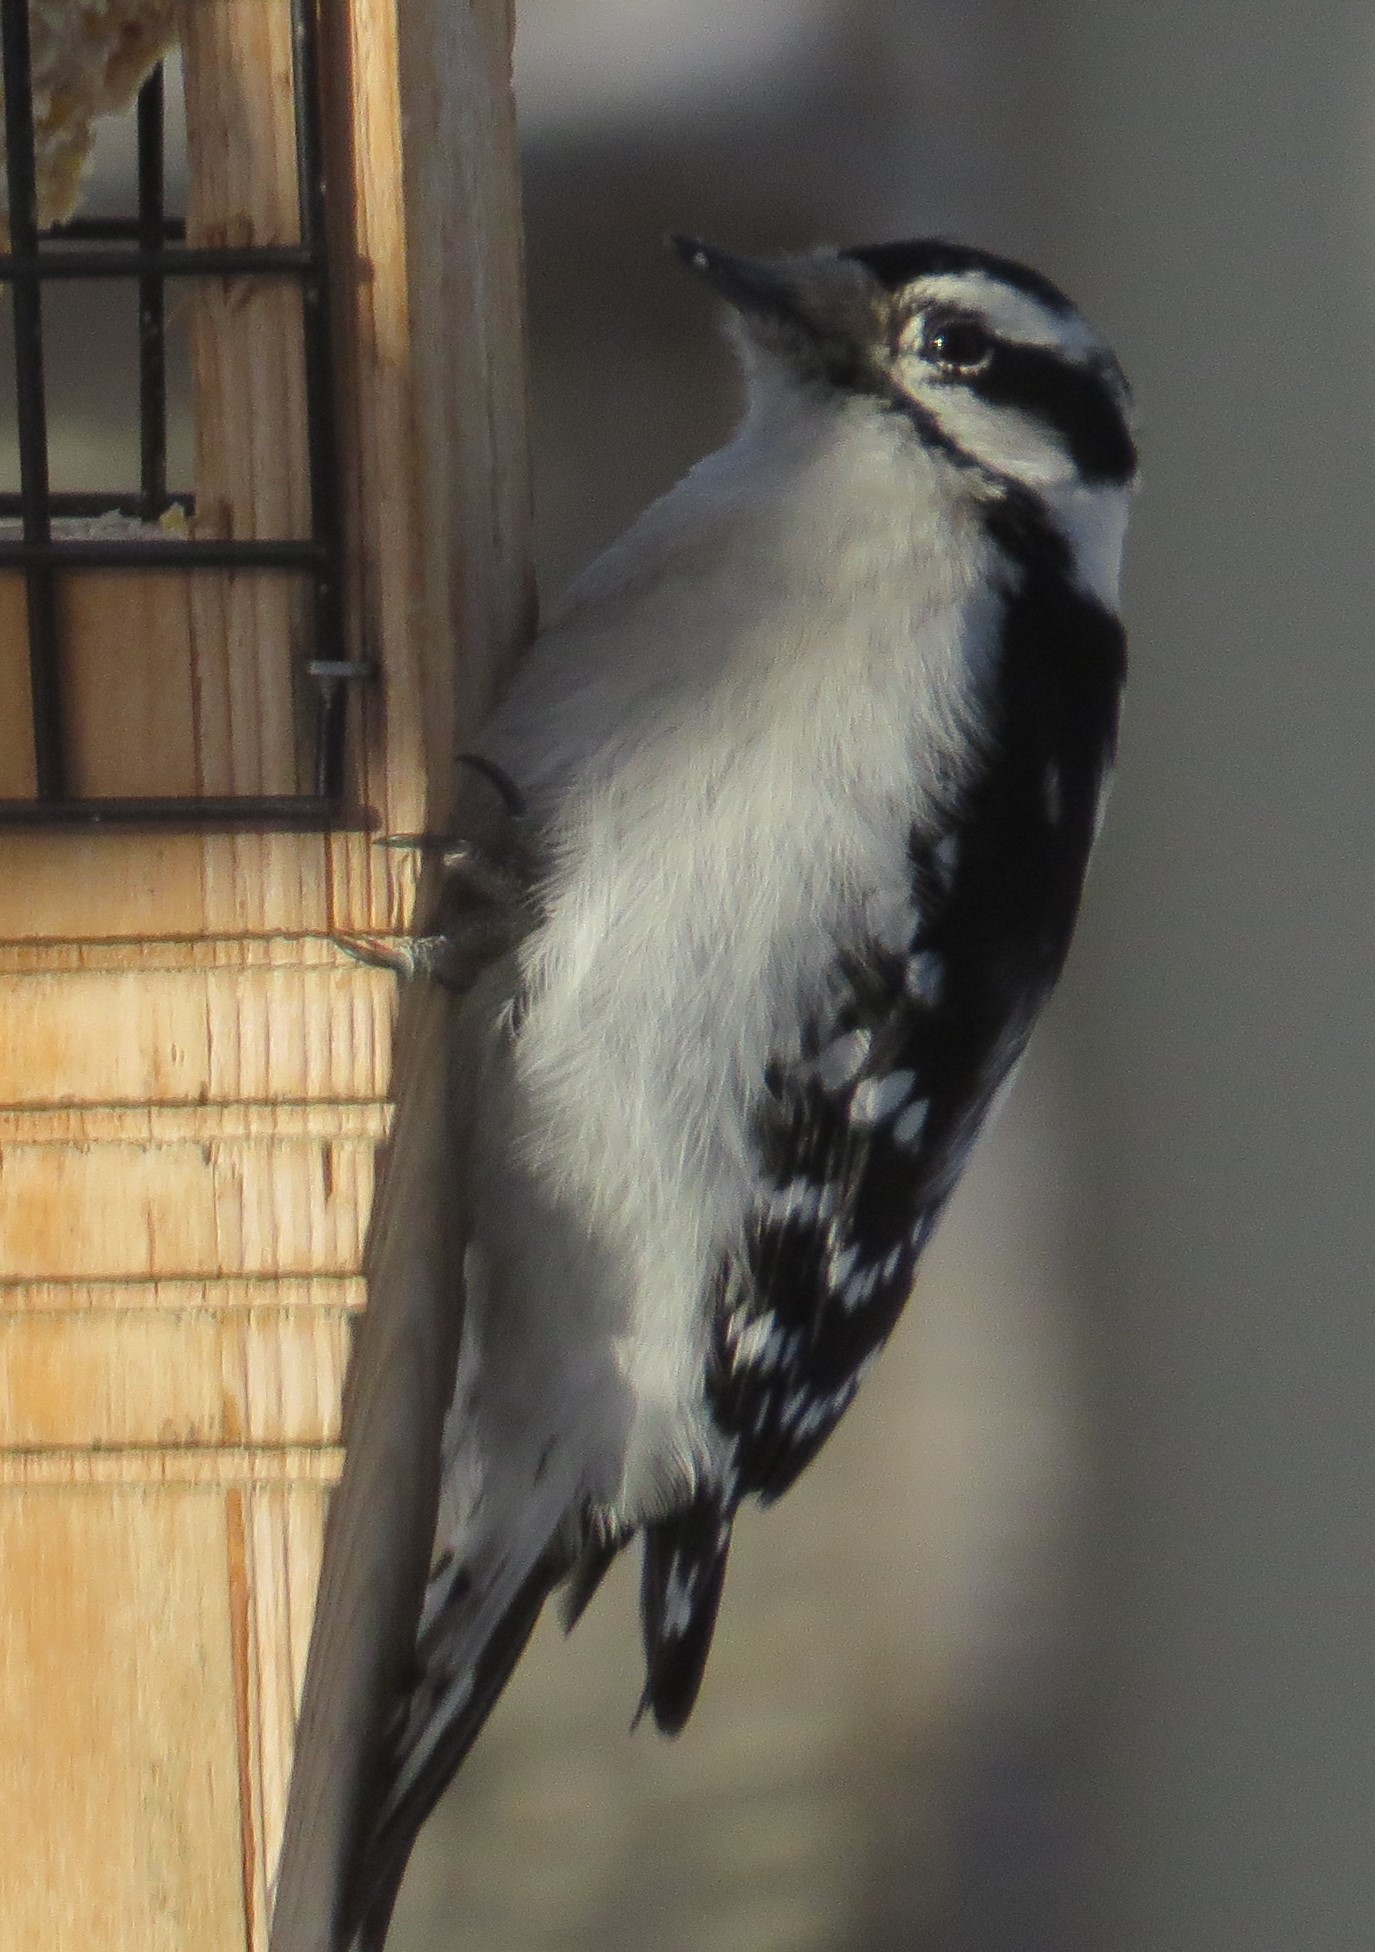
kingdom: Animalia
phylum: Chordata
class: Aves
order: Piciformes
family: Picidae
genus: Dryobates
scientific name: Dryobates pubescens
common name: Downy woodpecker
